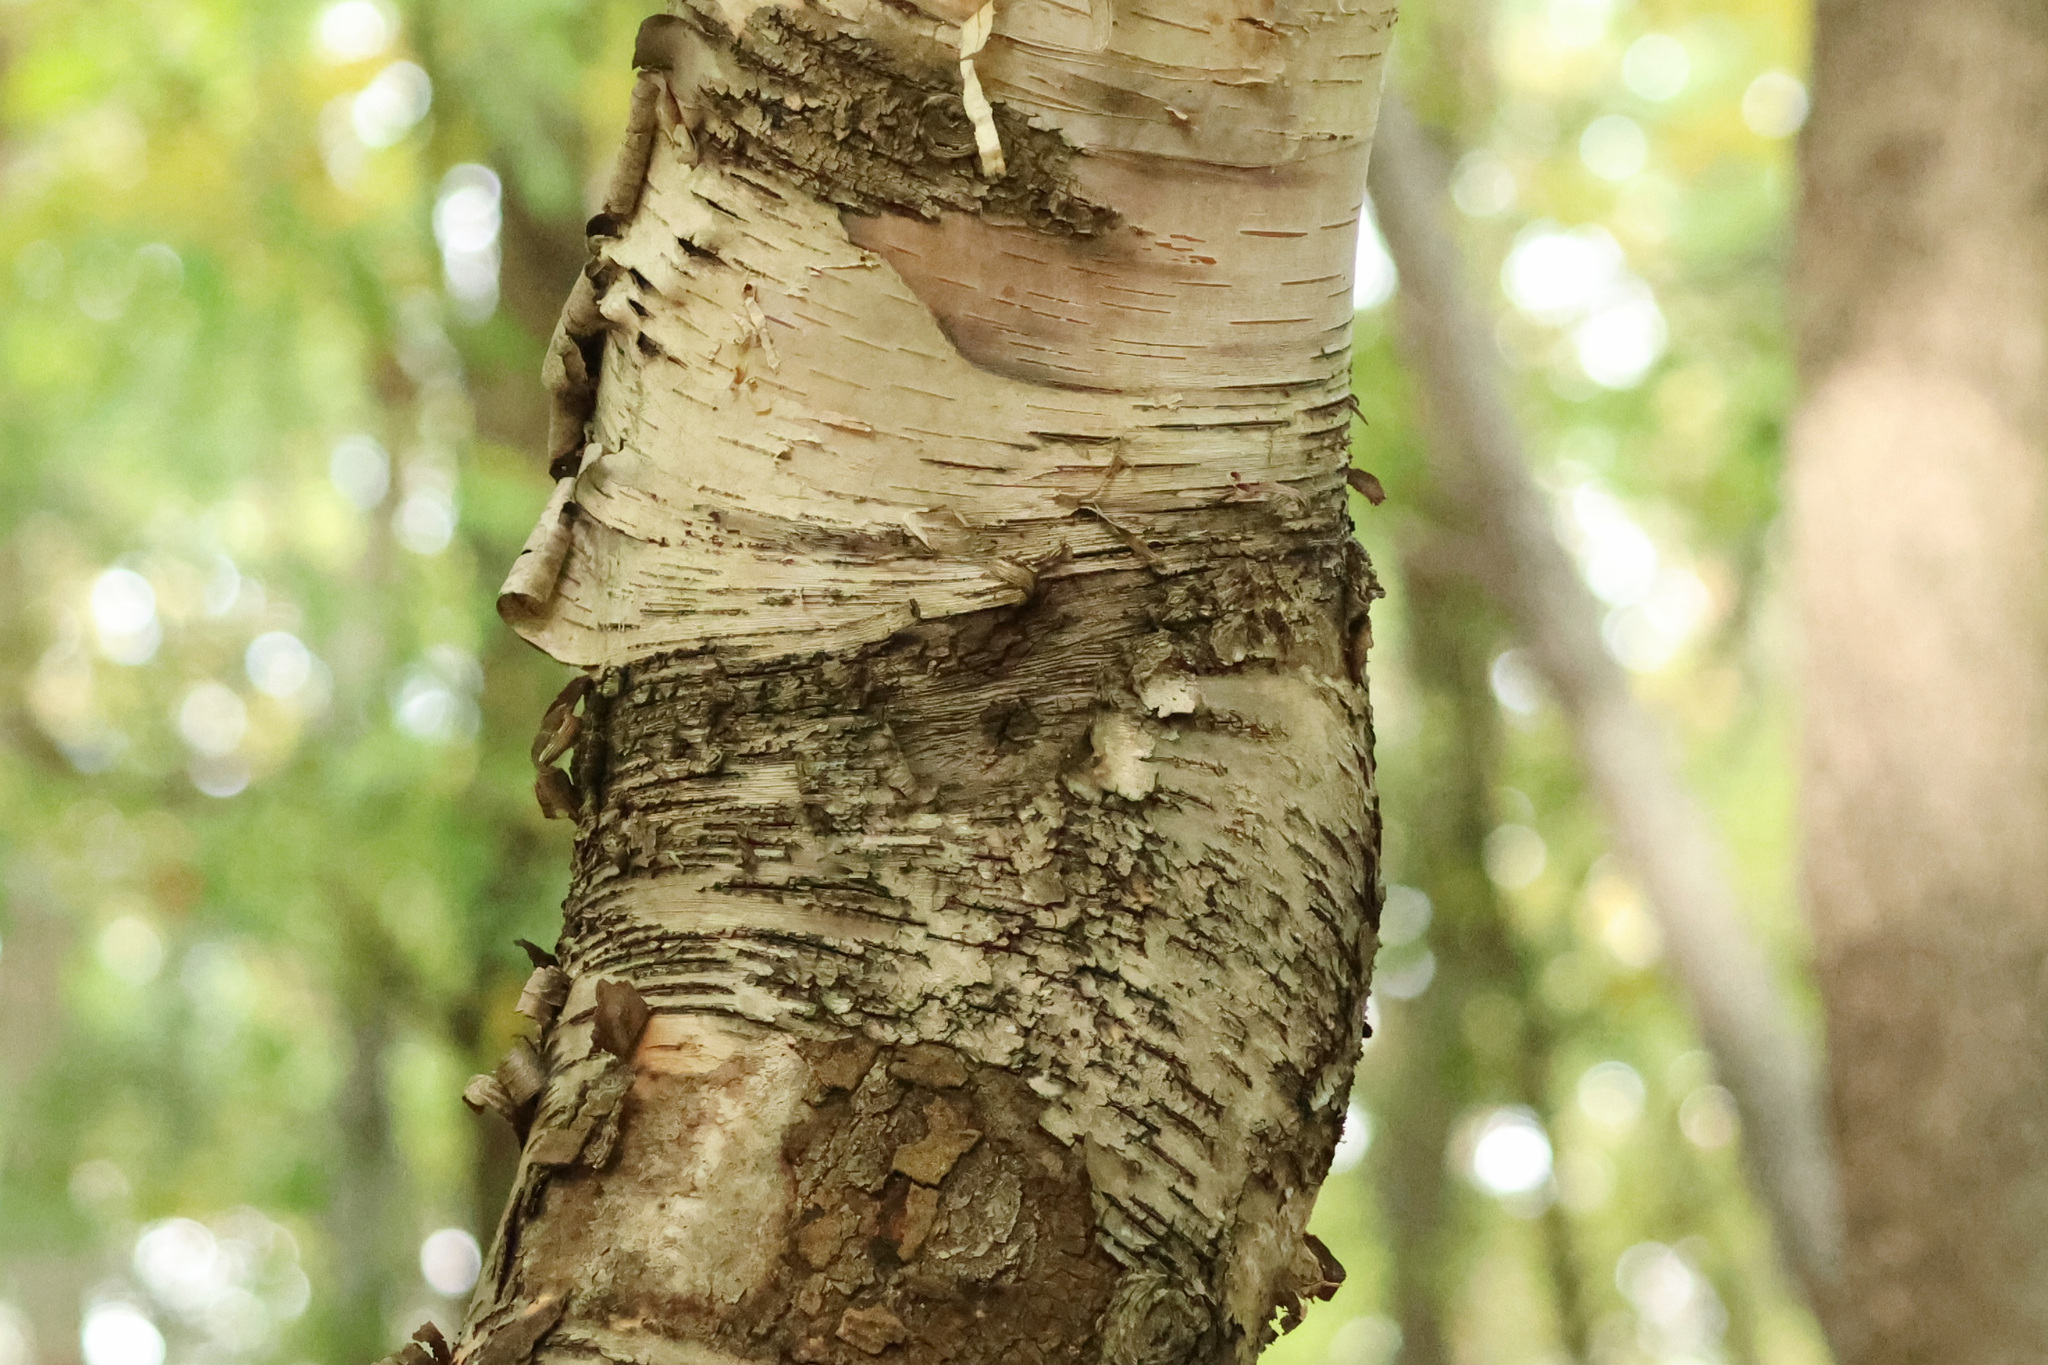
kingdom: Plantae
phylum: Tracheophyta
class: Magnoliopsida
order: Fagales
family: Betulaceae
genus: Betula
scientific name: Betula papyrifera
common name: Paper birch
